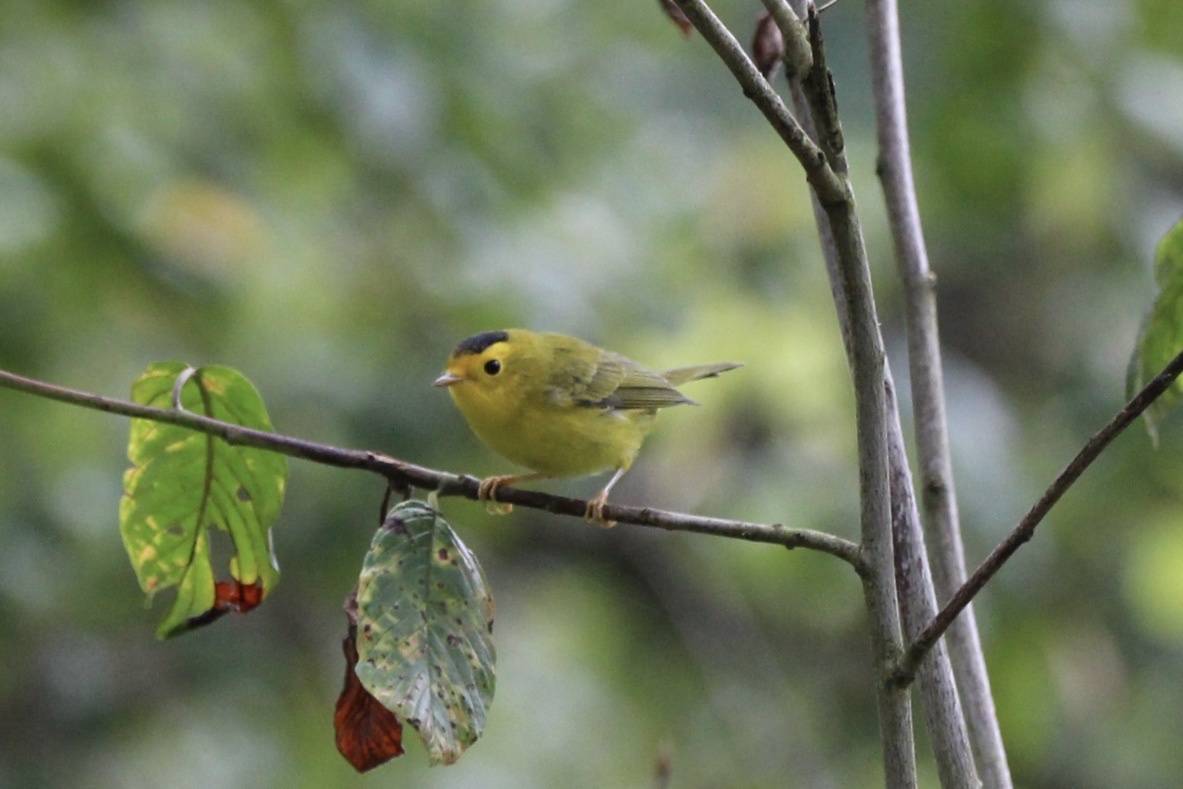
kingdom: Animalia
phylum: Chordata
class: Aves
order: Passeriformes
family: Parulidae
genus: Cardellina
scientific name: Cardellina pusilla
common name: Wilson's warbler
